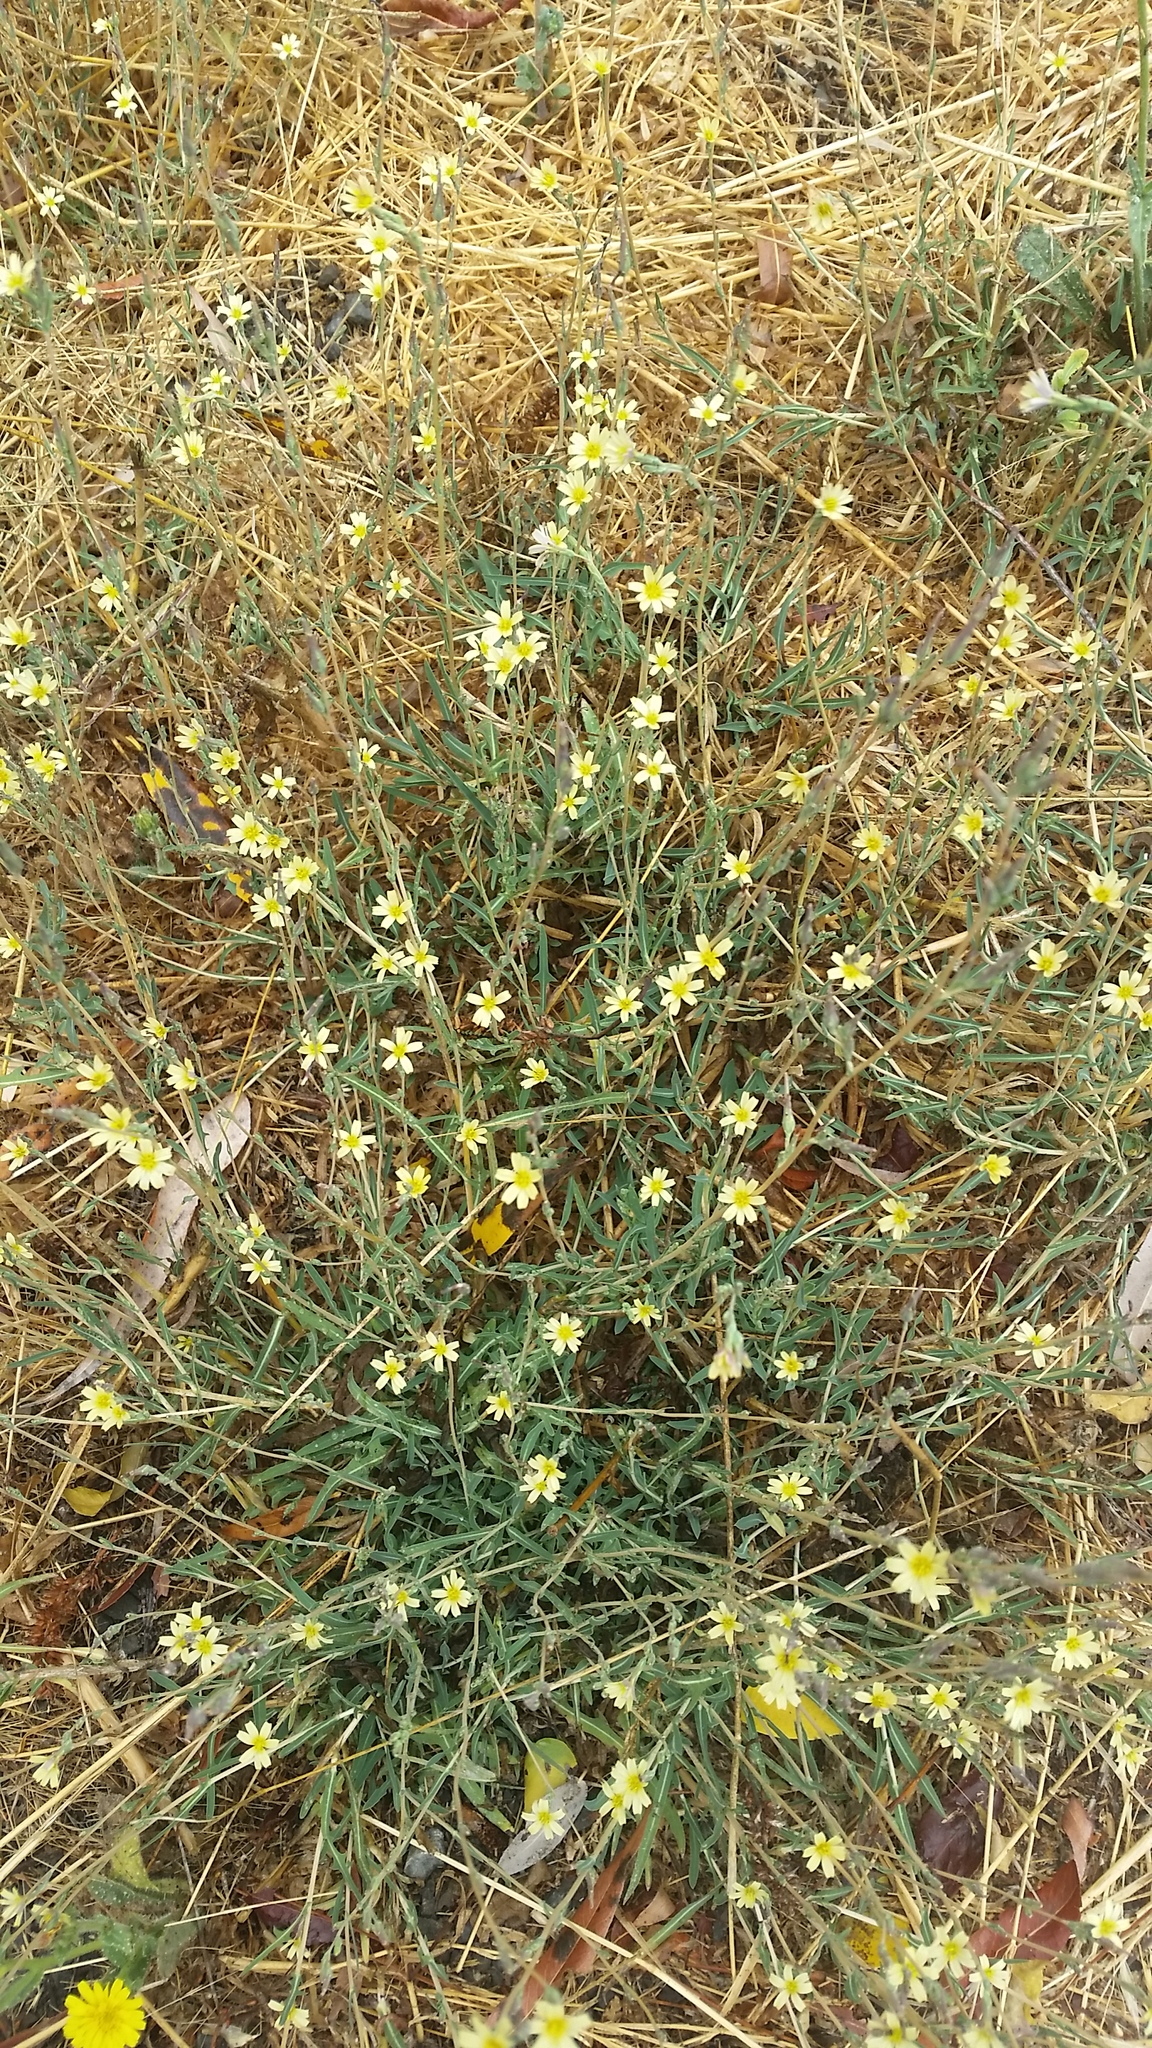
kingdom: Plantae
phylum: Tracheophyta
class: Magnoliopsida
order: Asterales
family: Asteraceae
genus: Lactuca
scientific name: Lactuca saligna
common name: Wild lettuce
